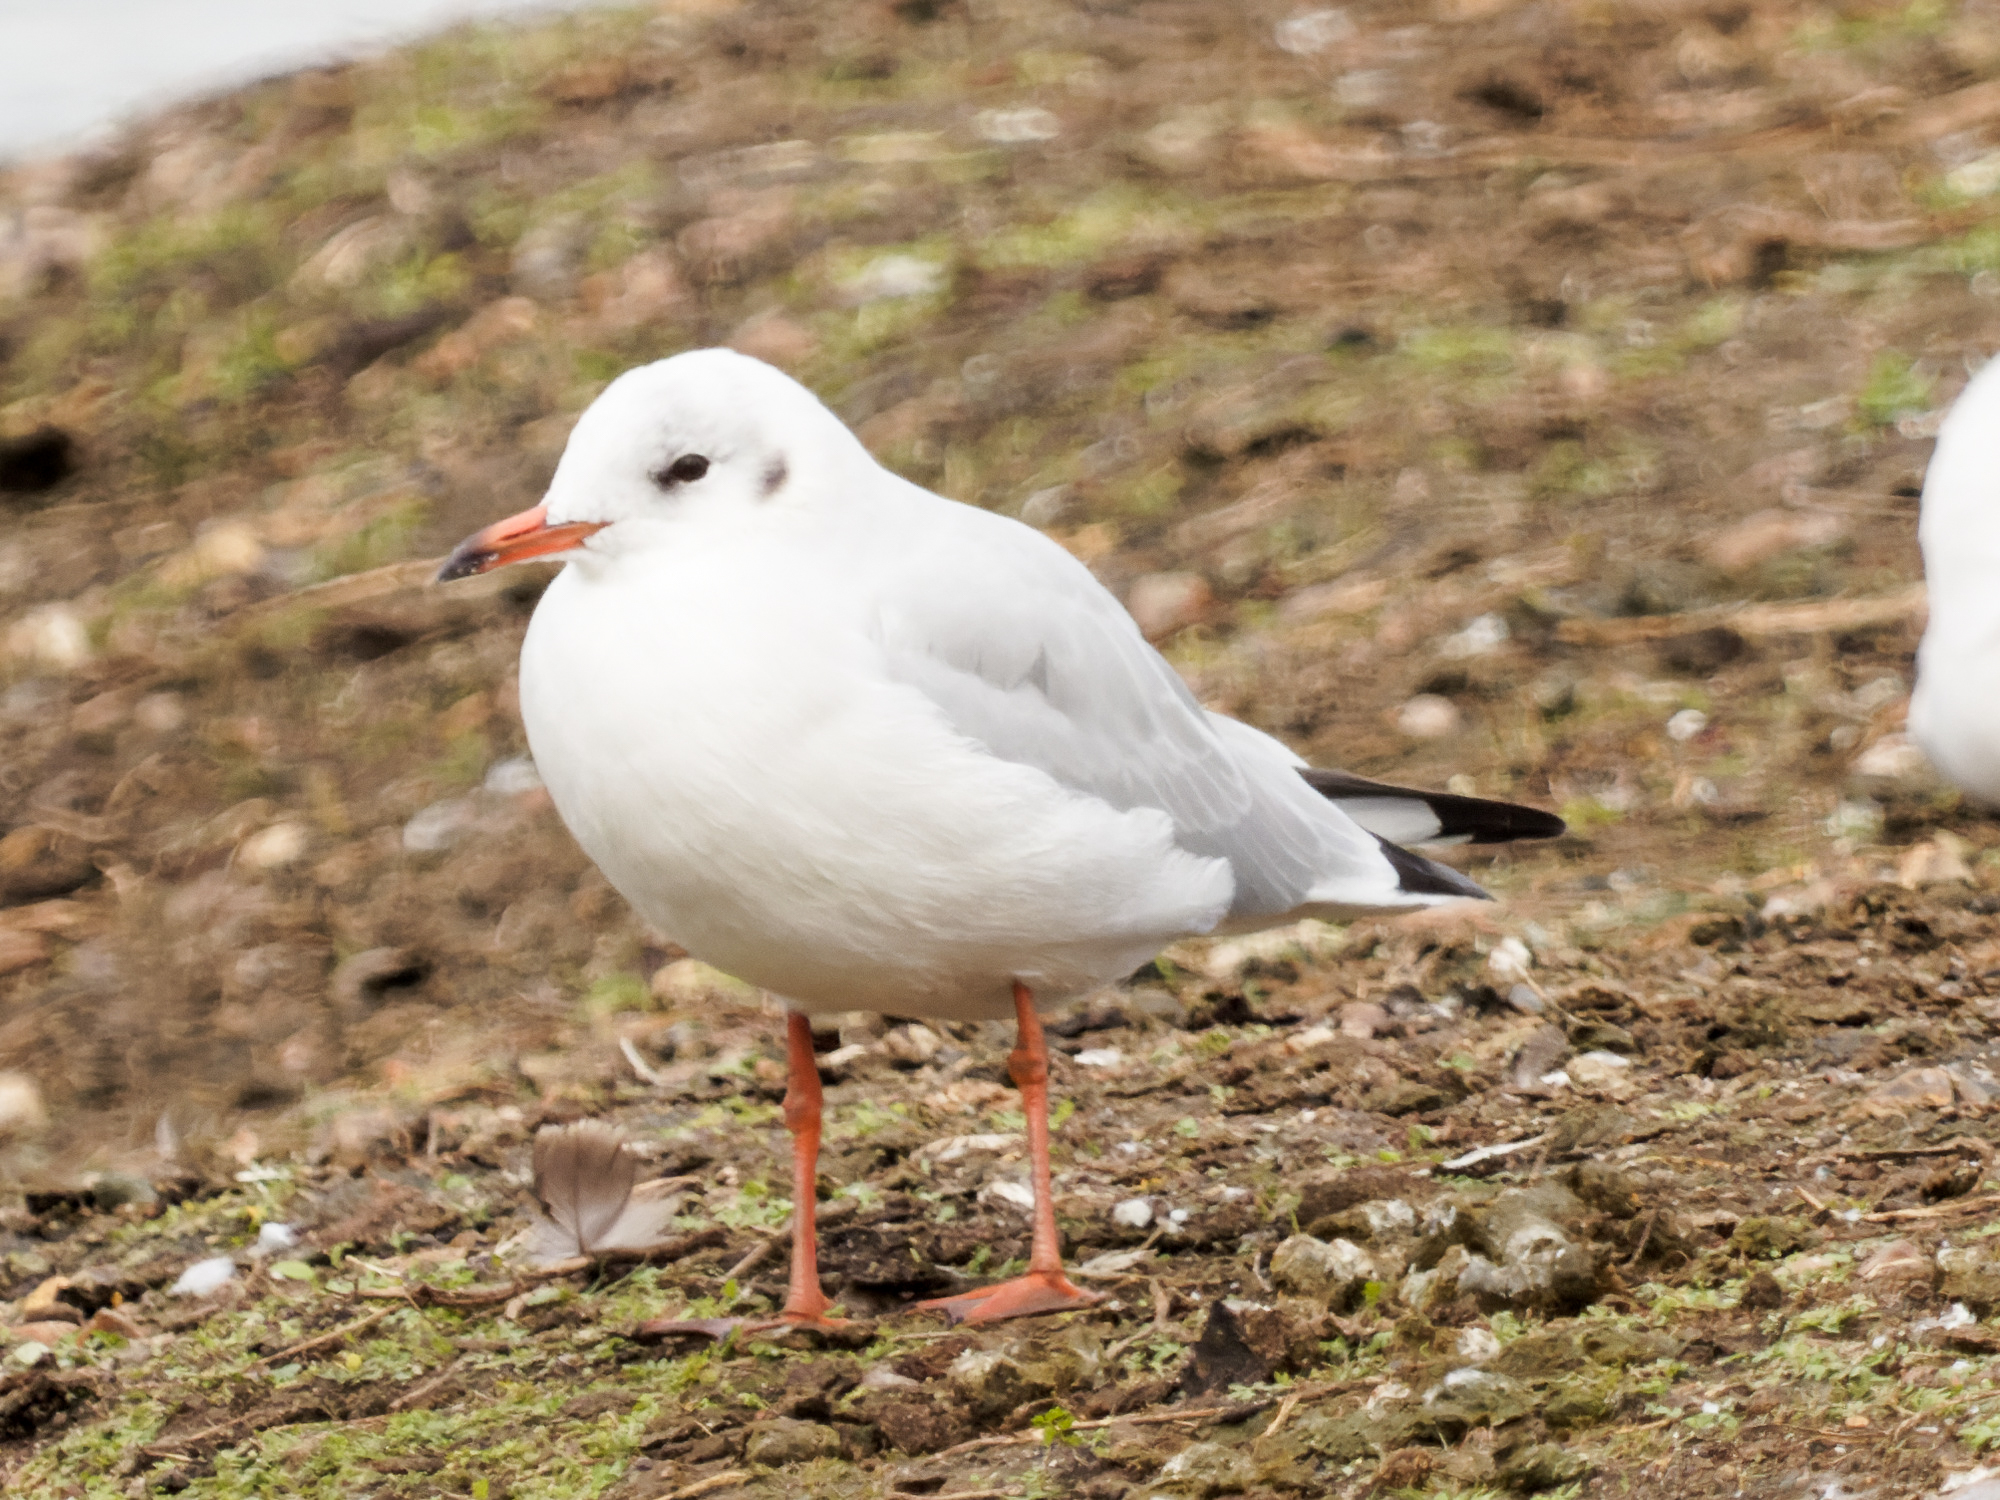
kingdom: Animalia
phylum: Chordata
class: Aves
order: Charadriiformes
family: Laridae
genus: Chroicocephalus
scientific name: Chroicocephalus ridibundus
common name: Black-headed gull
